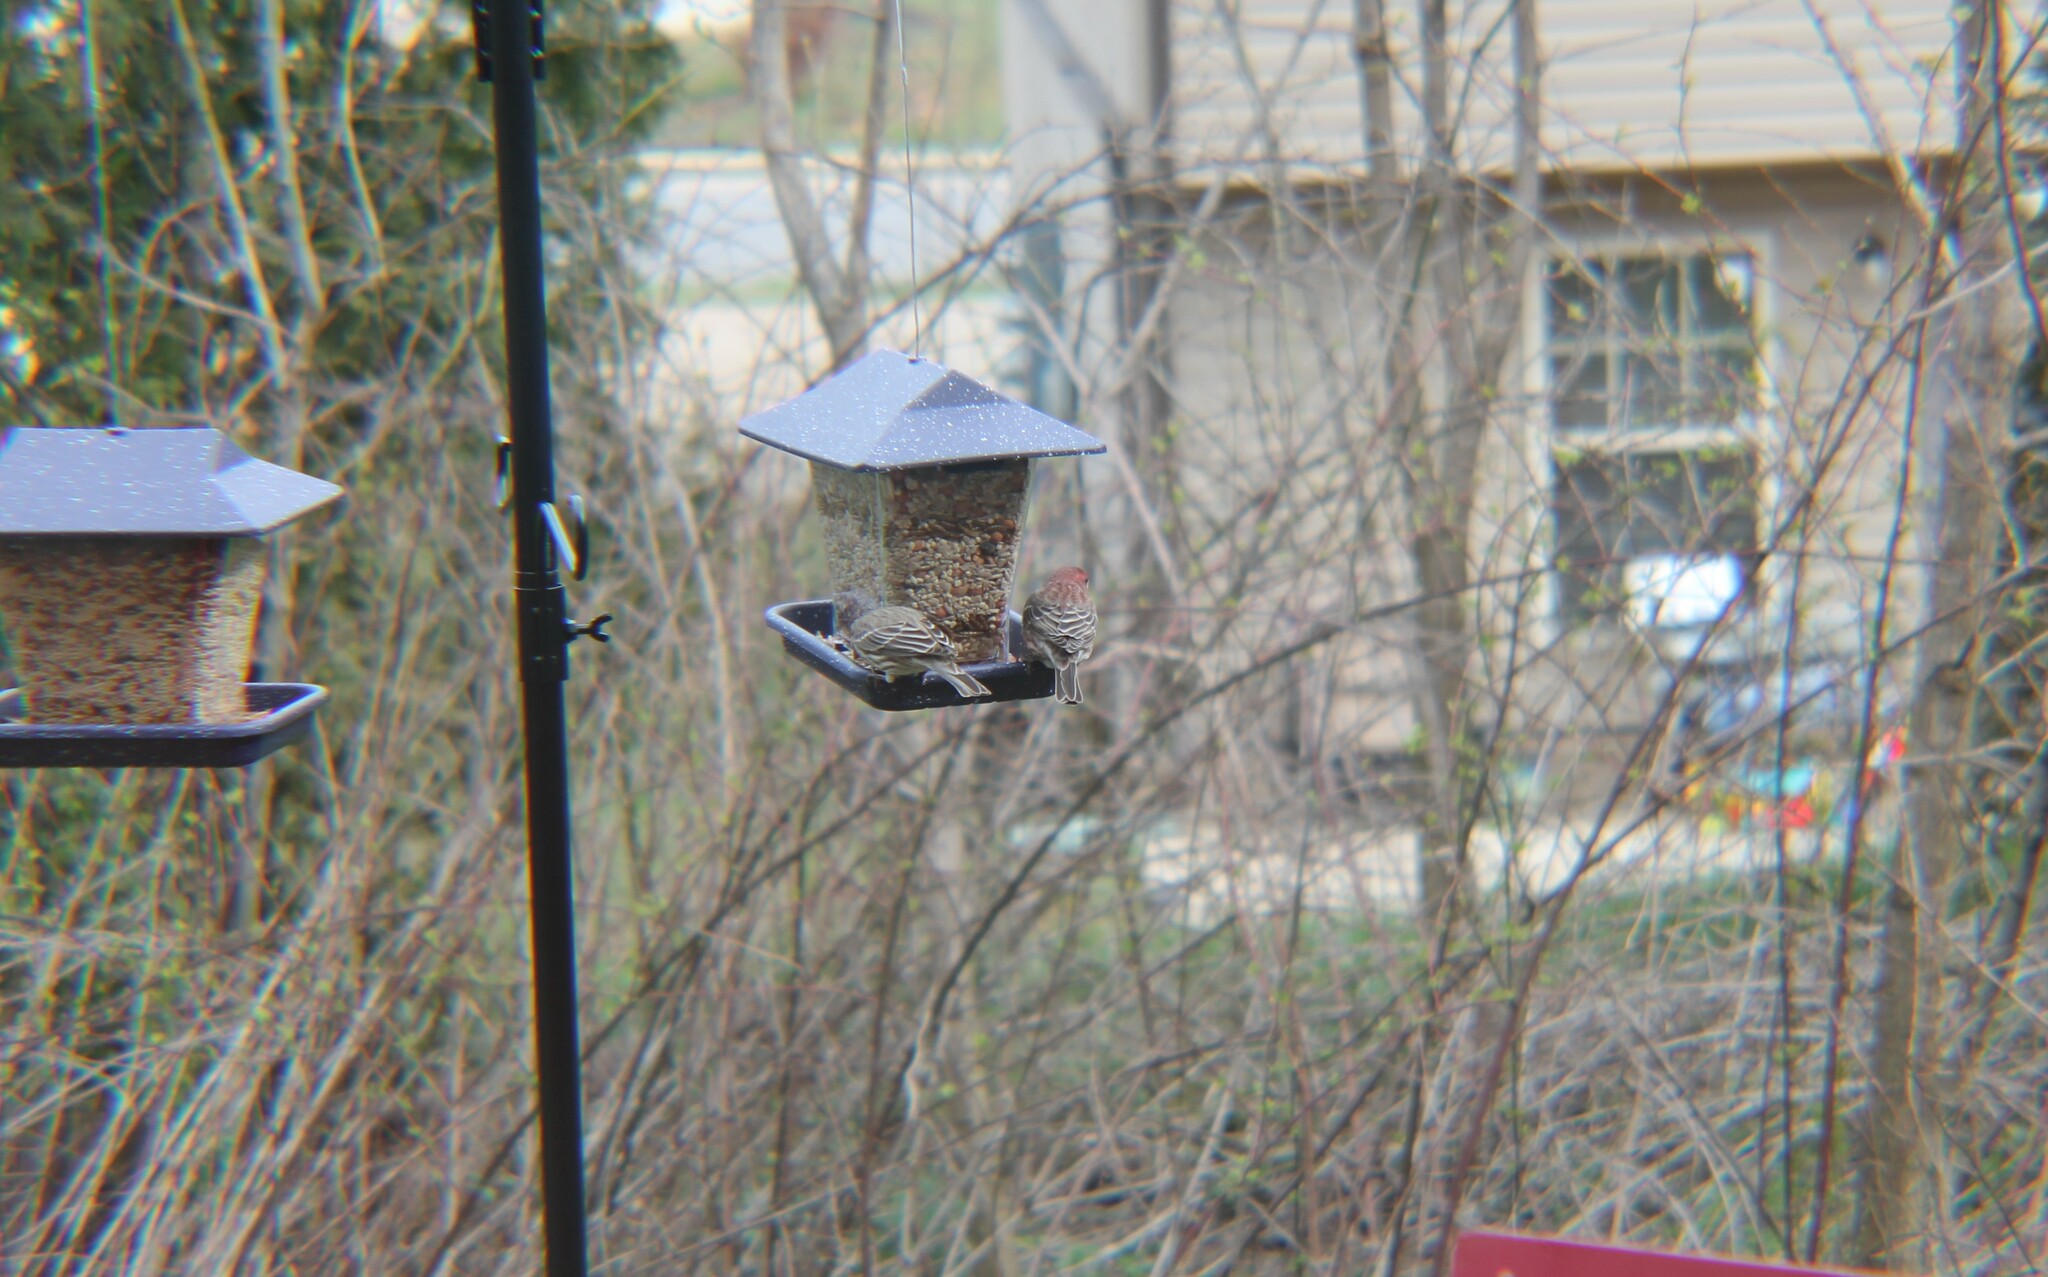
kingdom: Animalia
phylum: Chordata
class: Aves
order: Passeriformes
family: Fringillidae
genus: Haemorhous
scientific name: Haemorhous mexicanus
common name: House finch
